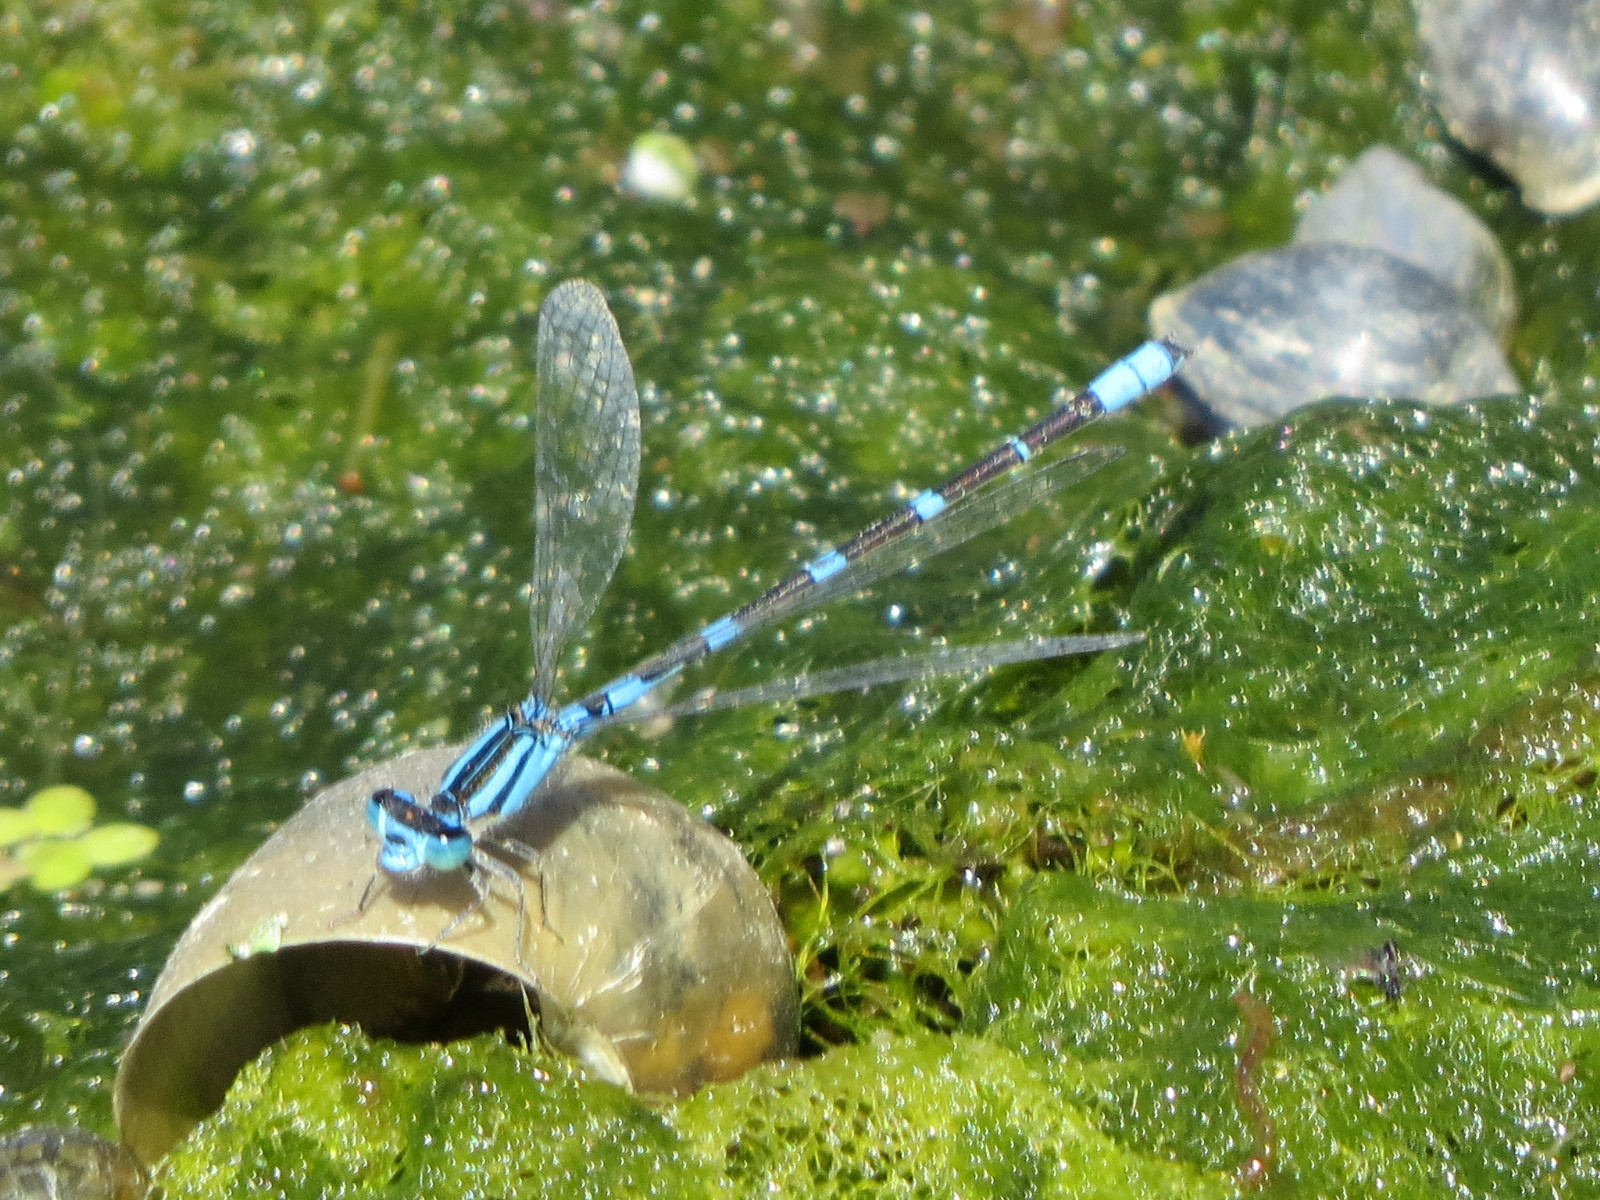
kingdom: Animalia
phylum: Arthropoda
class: Insecta
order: Odonata
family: Coenagrionidae
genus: Enallagma
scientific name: Enallagma carunculatum
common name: Tule bluet
